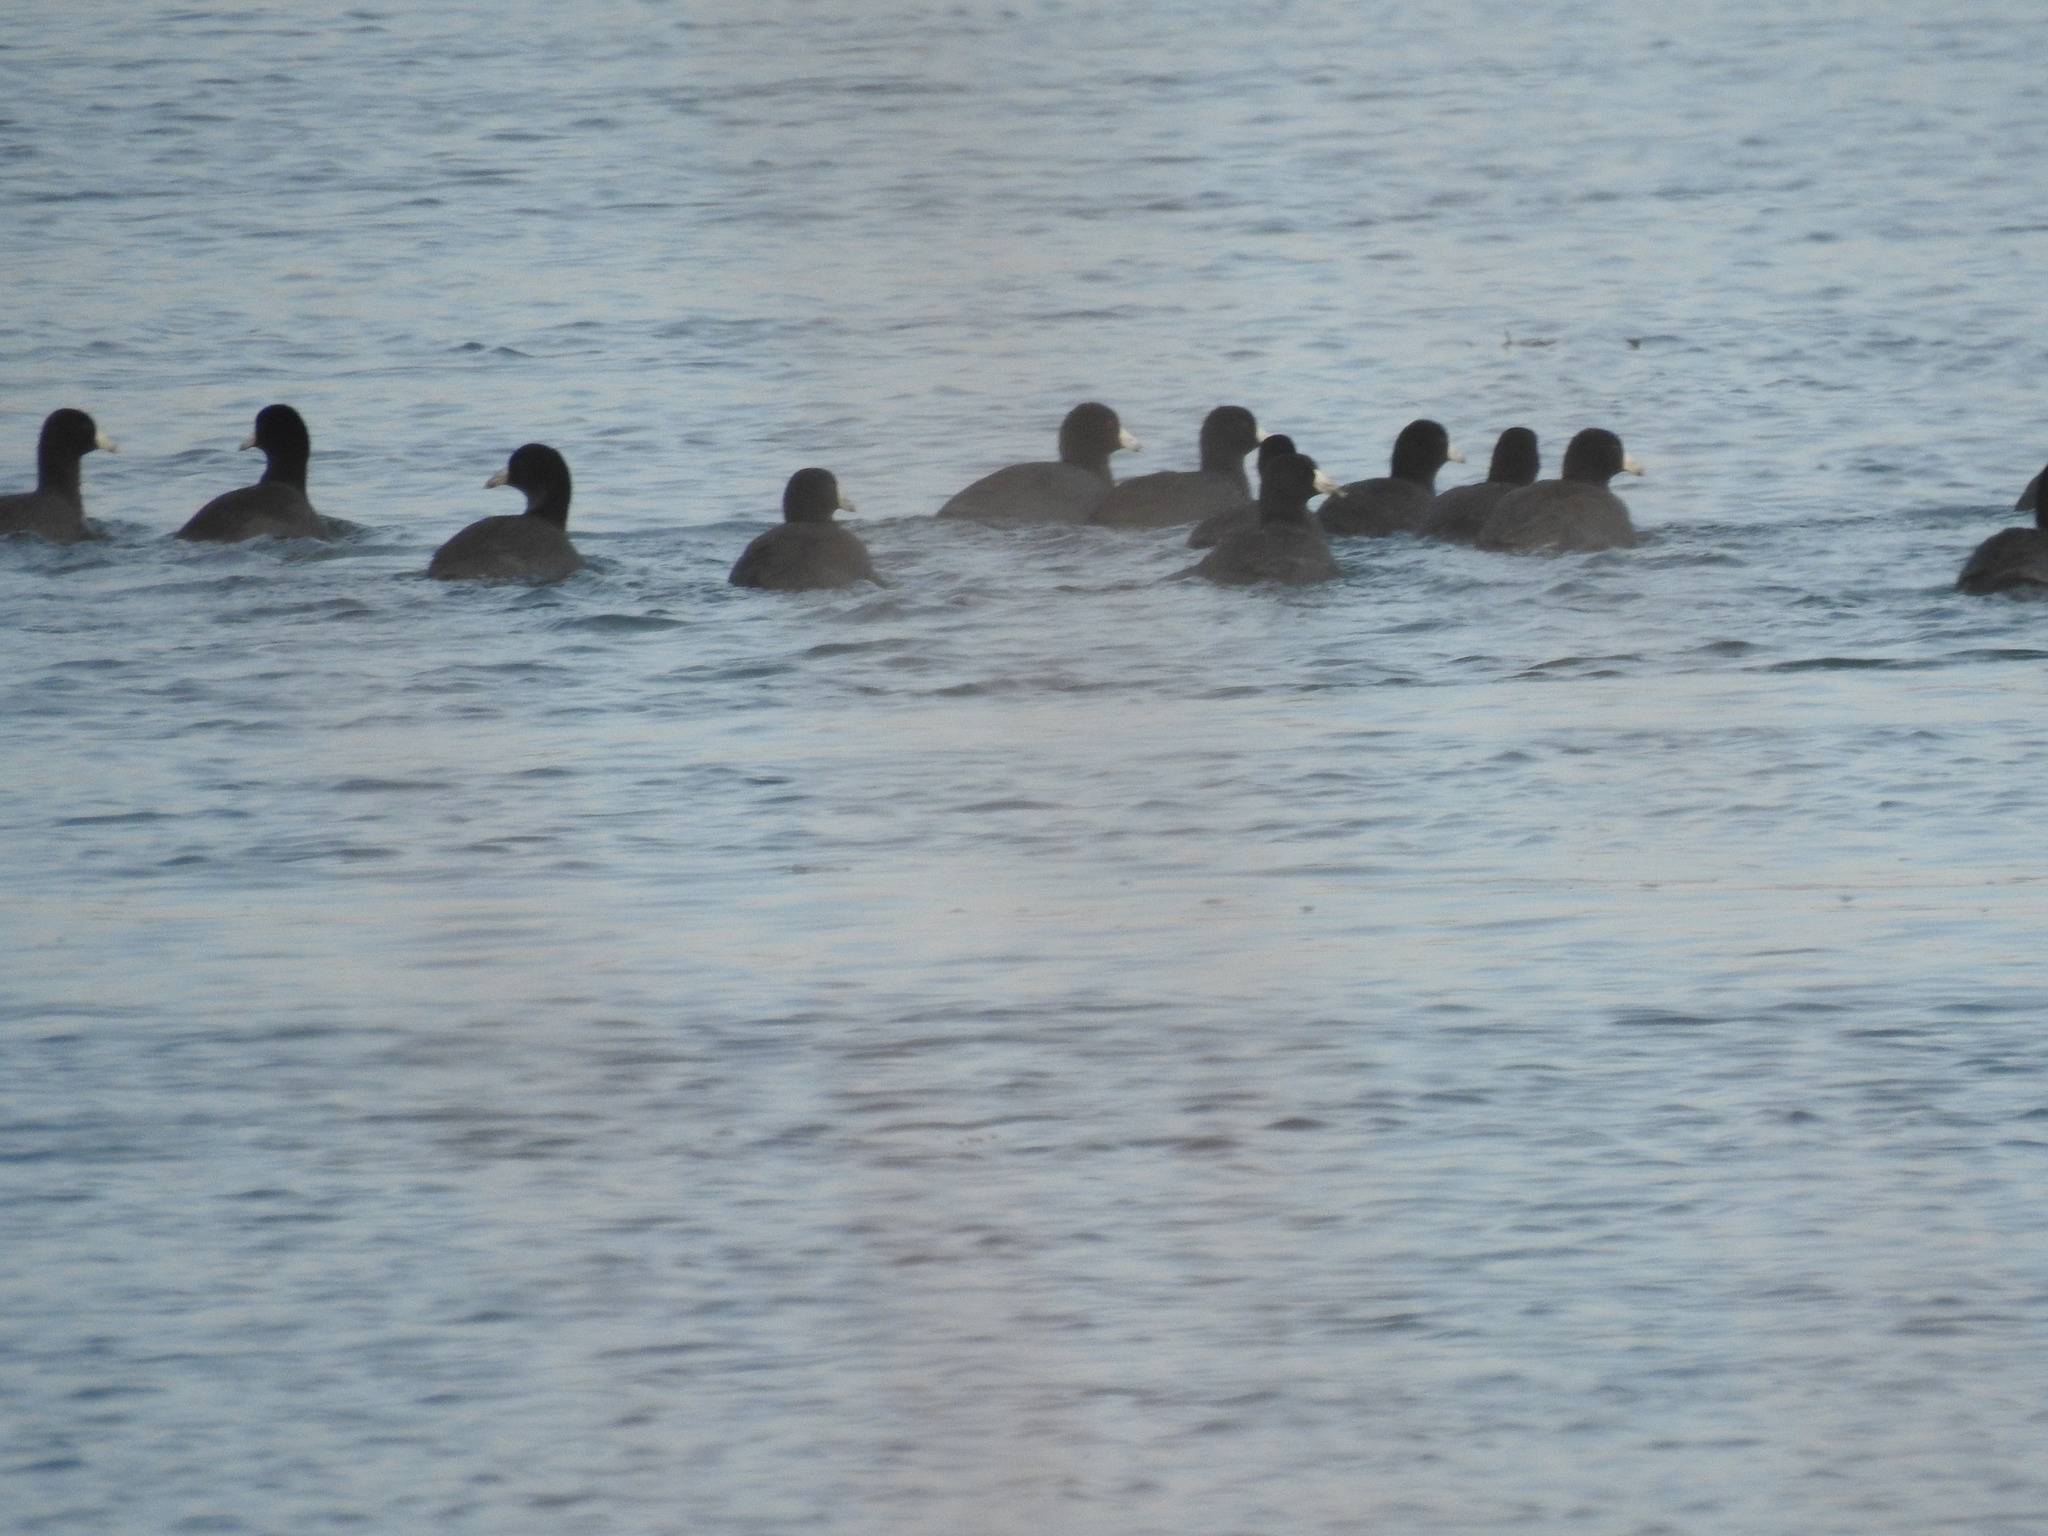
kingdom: Animalia
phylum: Chordata
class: Aves
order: Gruiformes
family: Rallidae
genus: Fulica
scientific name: Fulica americana
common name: American coot
